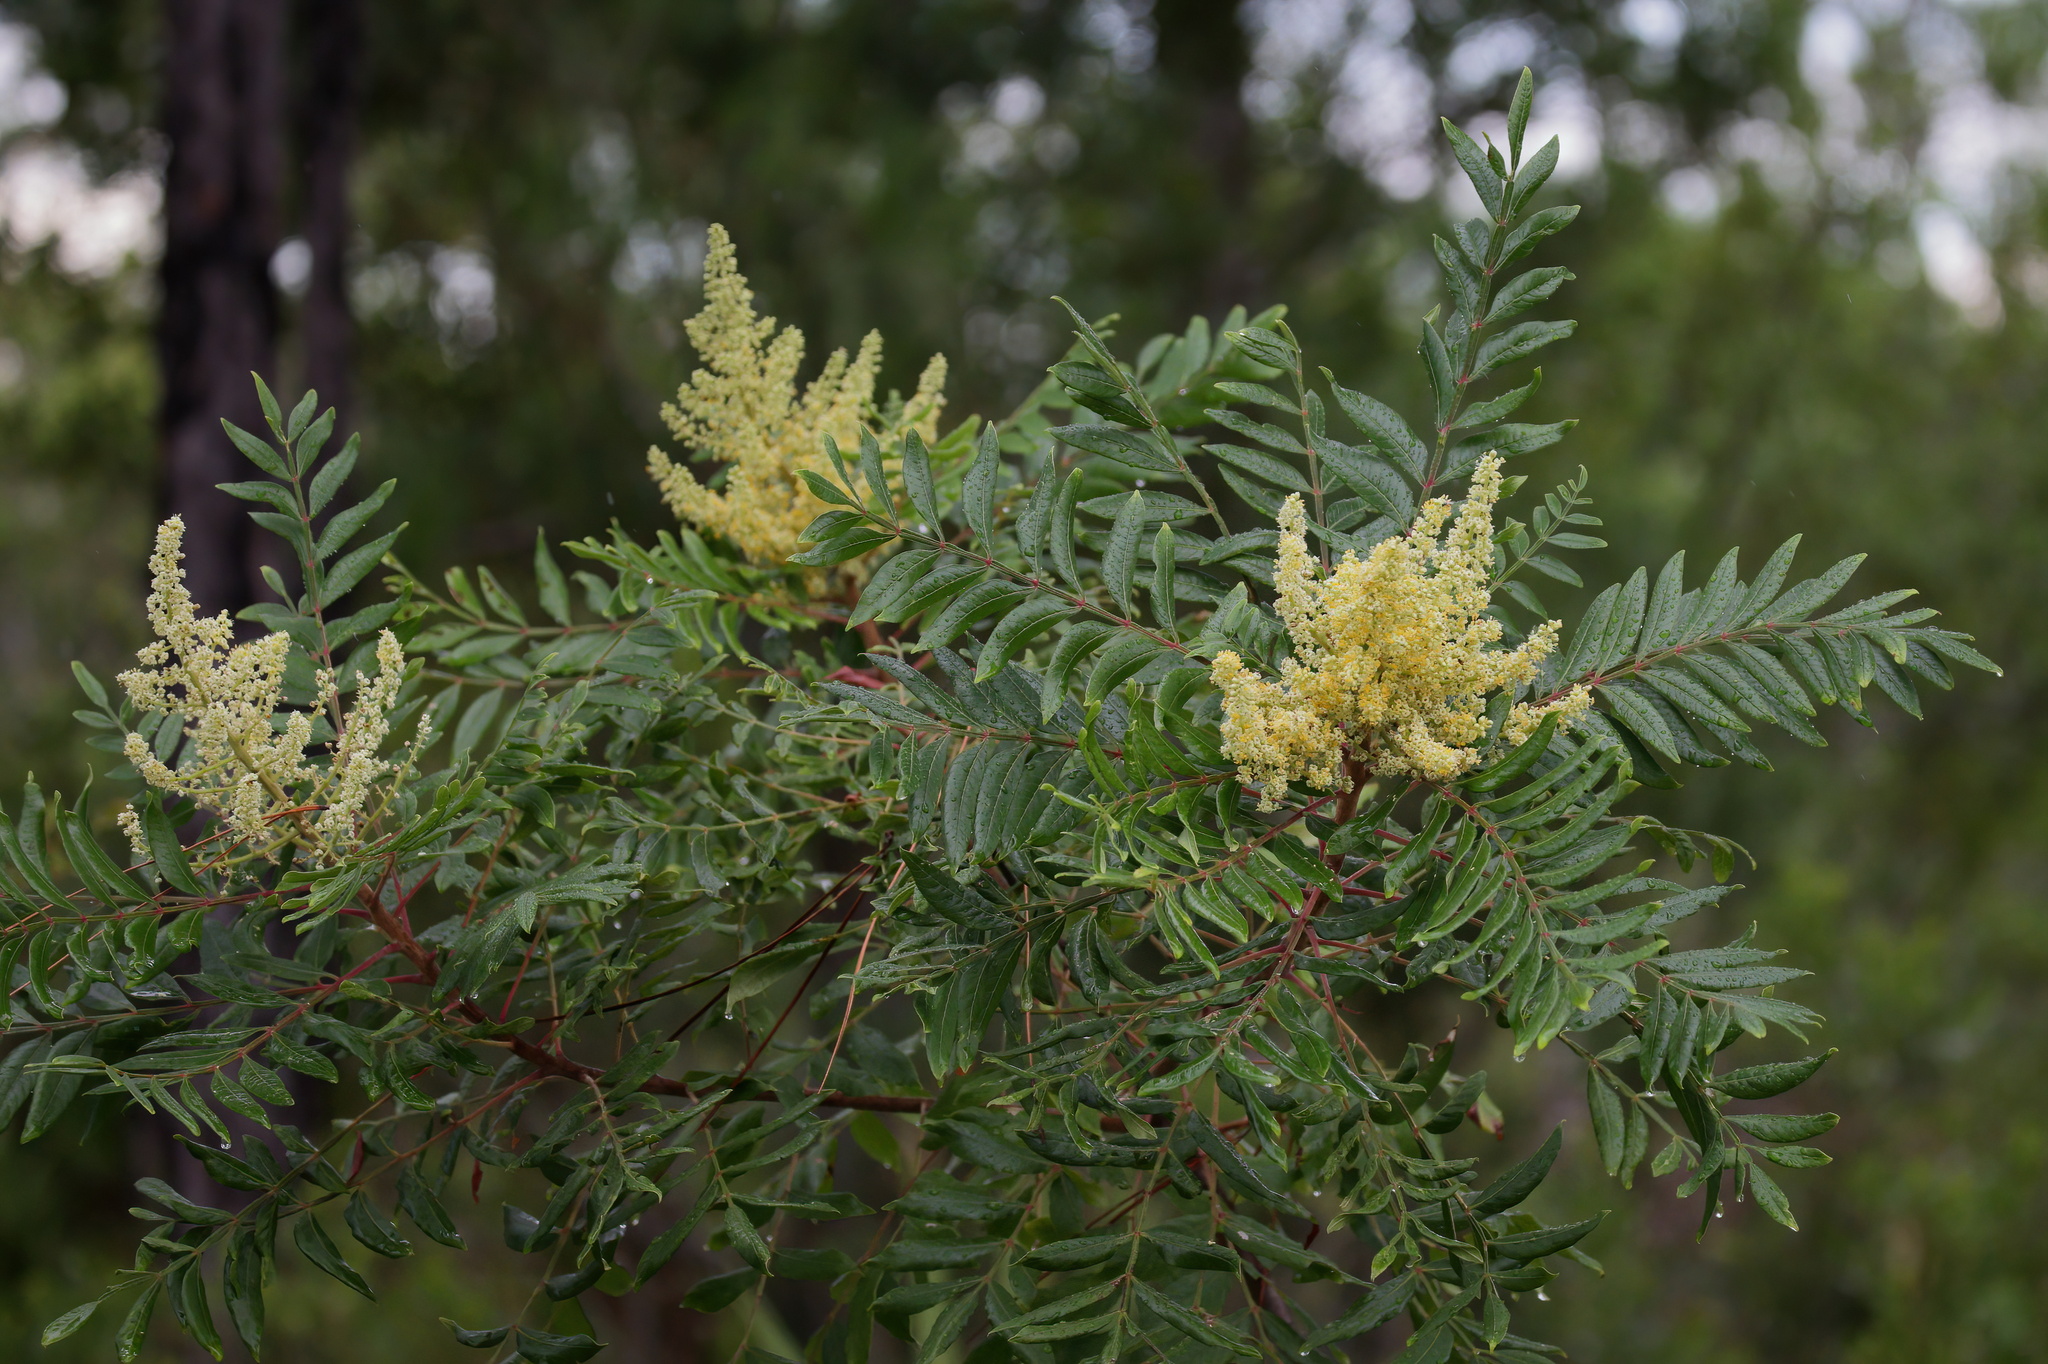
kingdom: Plantae
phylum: Tracheophyta
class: Magnoliopsida
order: Sapindales
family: Anacardiaceae
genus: Rhus
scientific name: Rhus copallina
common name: Shining sumac
